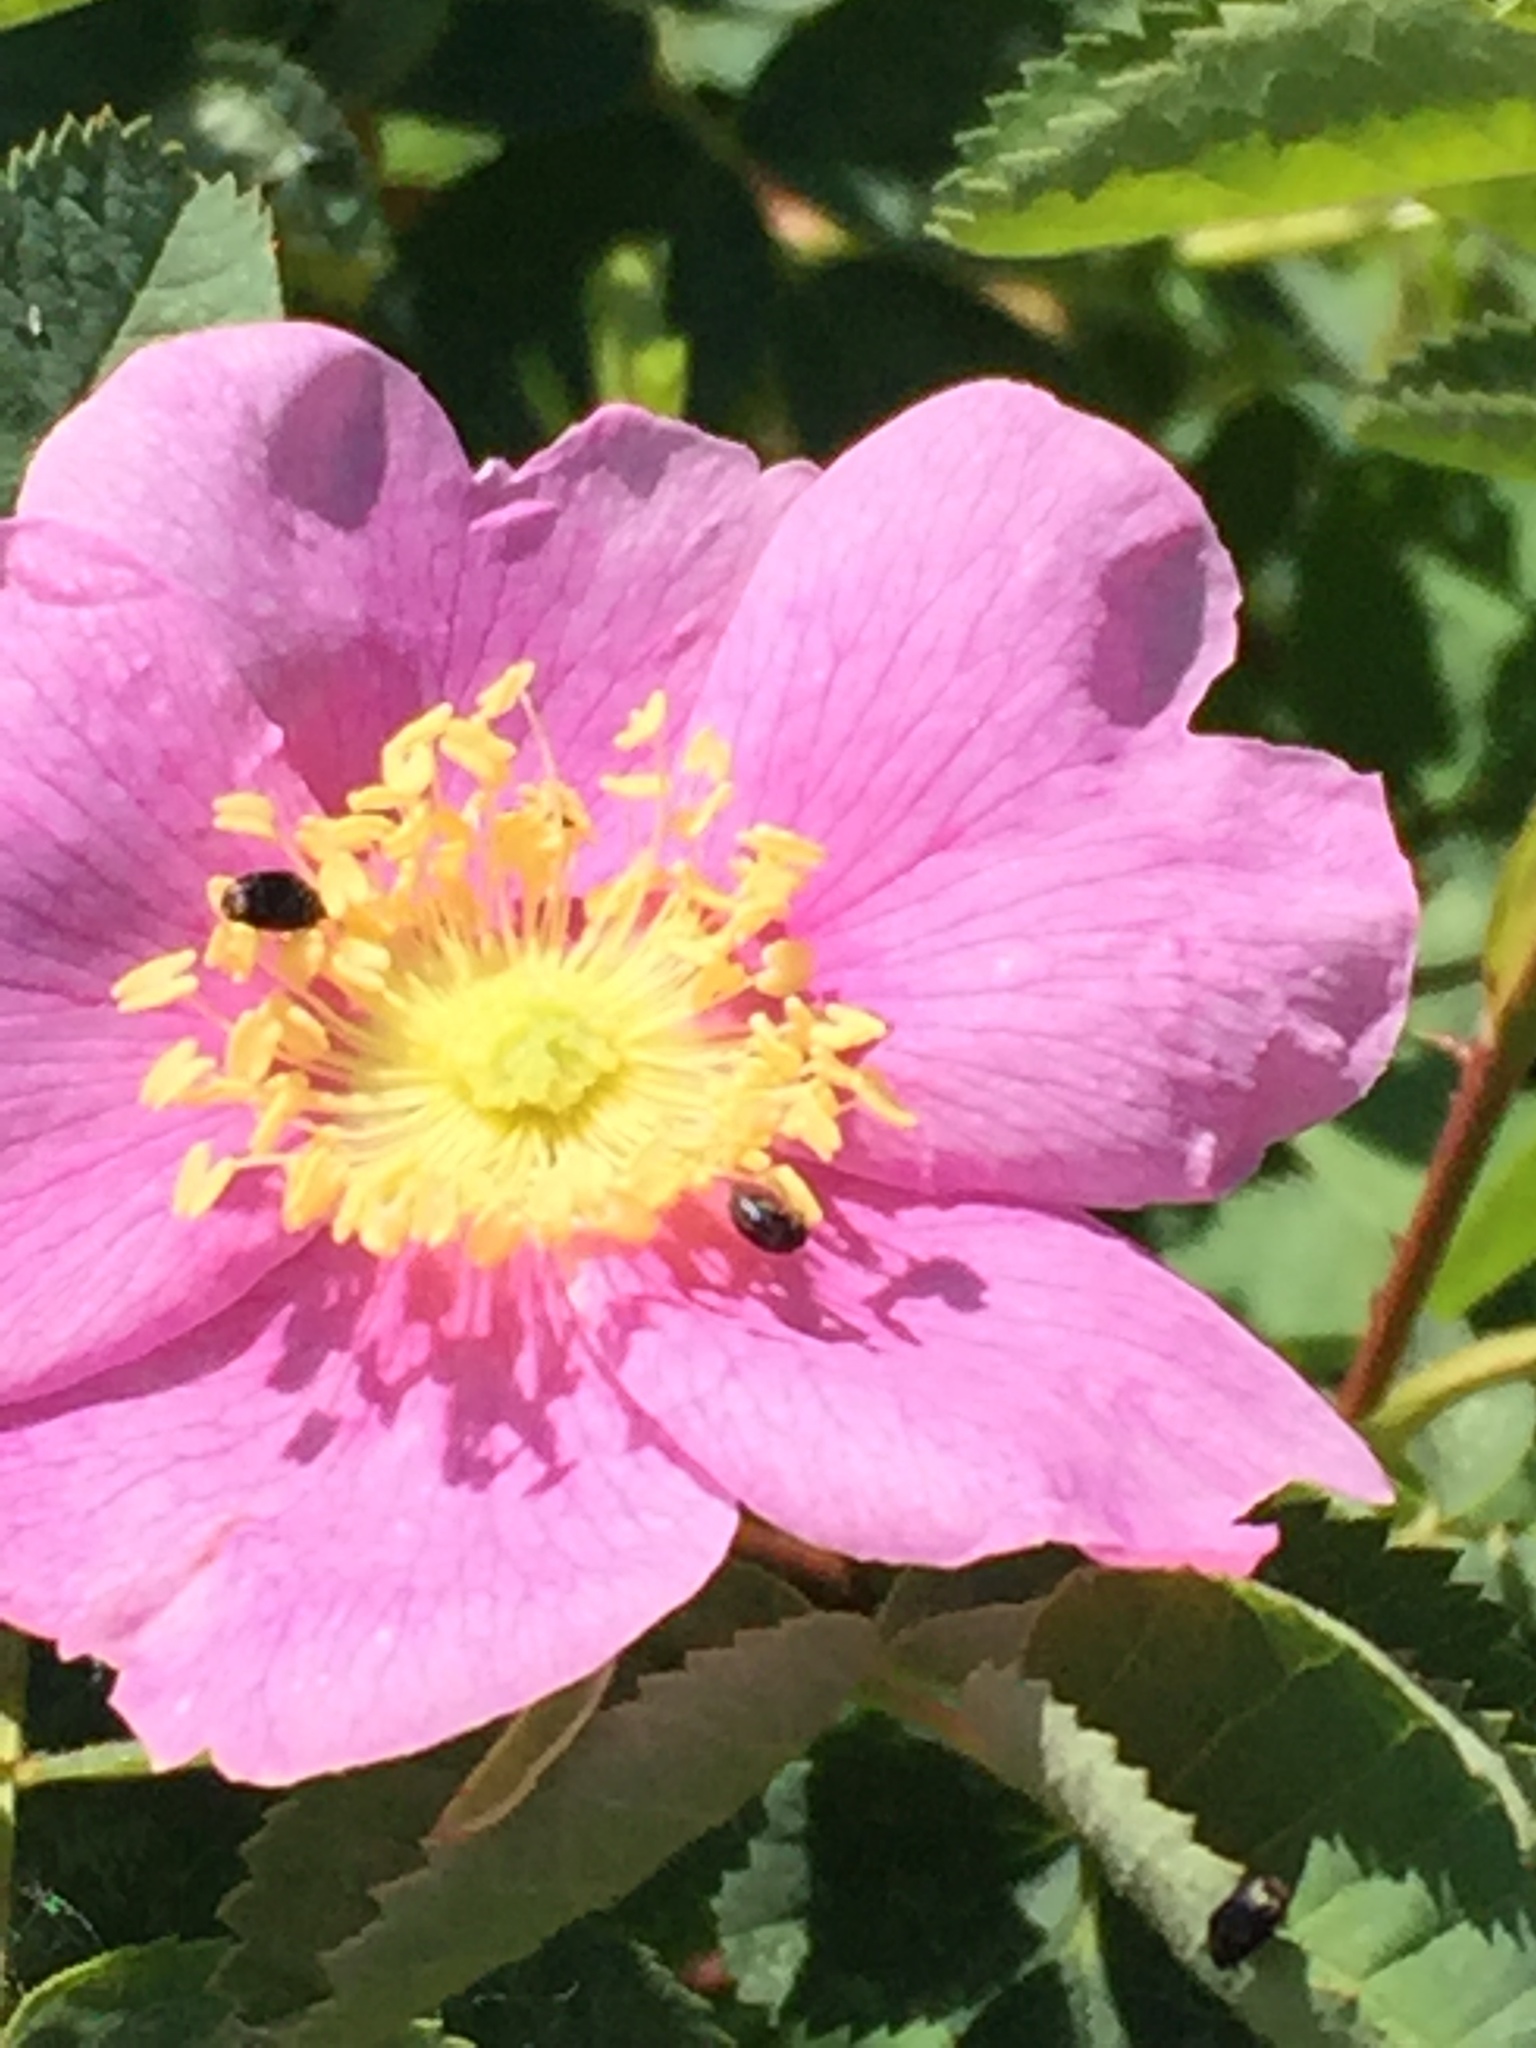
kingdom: Plantae
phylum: Tracheophyta
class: Magnoliopsida
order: Rosales
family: Rosaceae
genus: Rosa
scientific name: Rosa californica
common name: California rose
